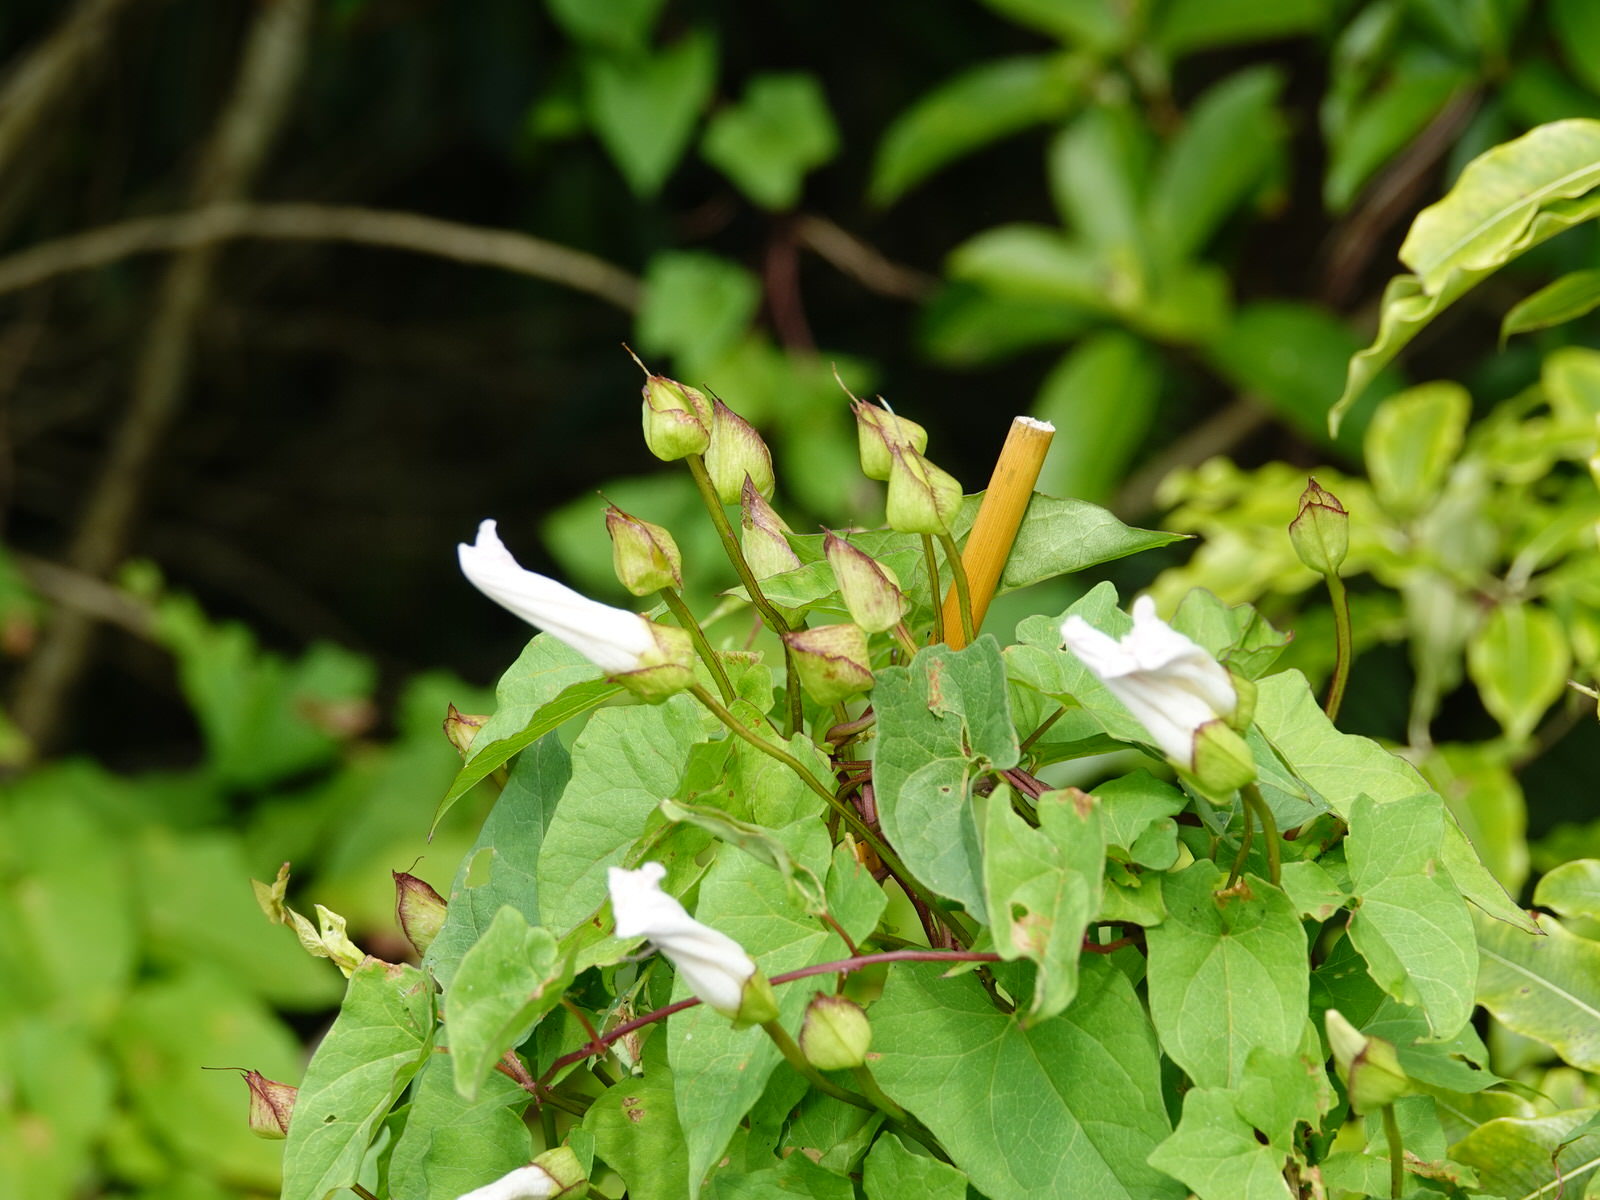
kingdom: Plantae
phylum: Tracheophyta
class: Magnoliopsida
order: Solanales
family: Convolvulaceae
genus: Calystegia
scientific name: Calystegia silvatica
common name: Large bindweed
